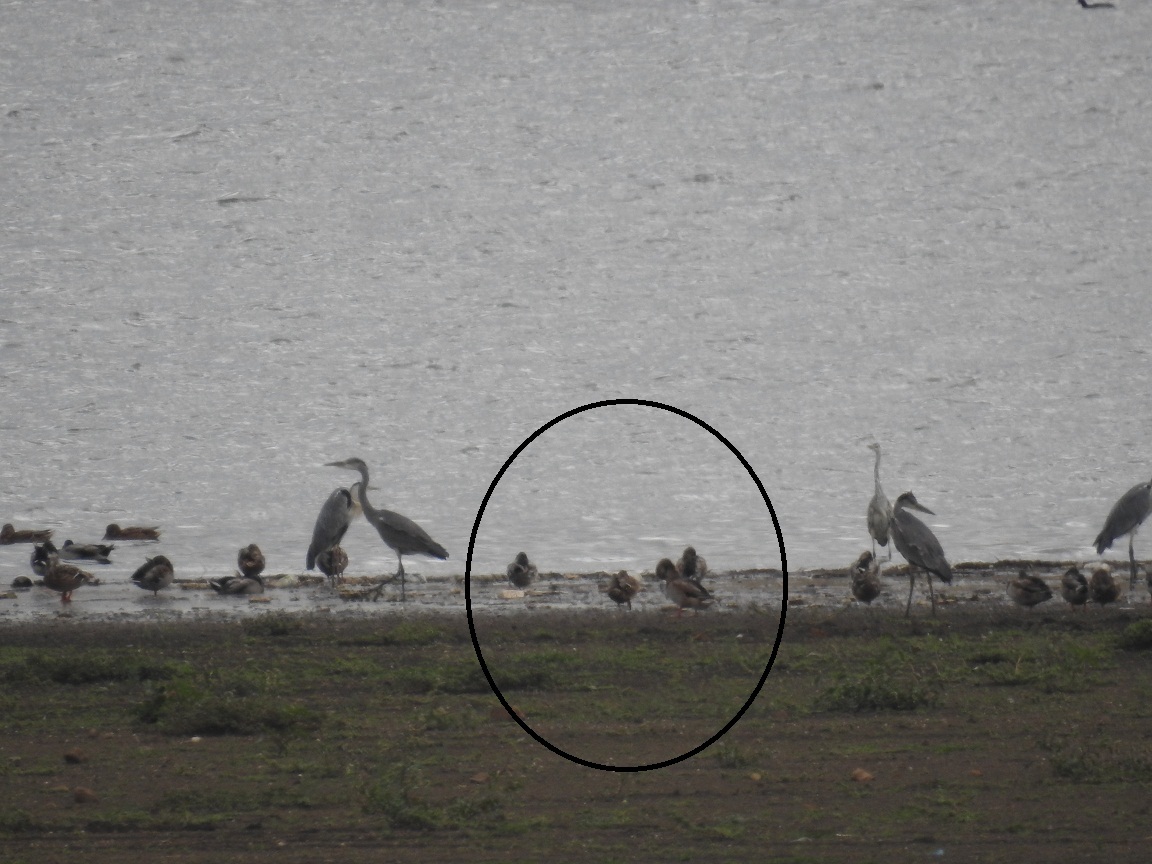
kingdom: Animalia
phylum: Chordata
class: Aves
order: Anseriformes
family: Anatidae
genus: Anas
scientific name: Anas platyrhynchos
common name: Mallard
